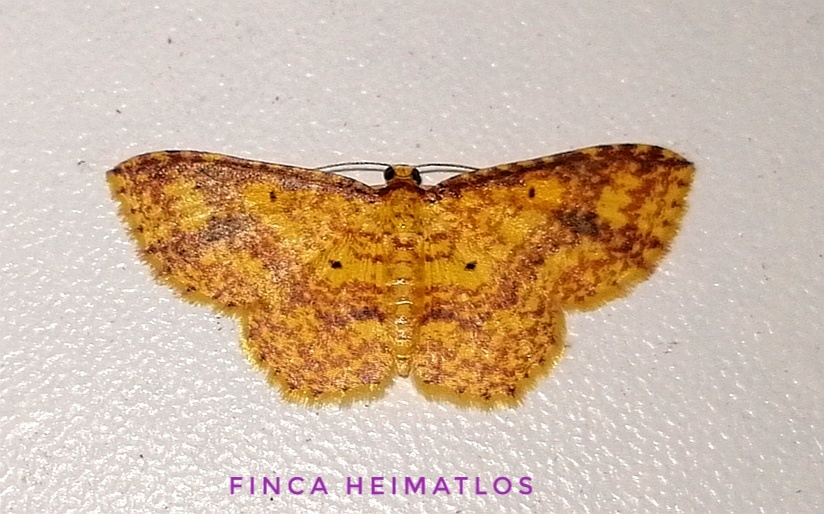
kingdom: Animalia
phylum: Arthropoda
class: Insecta
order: Lepidoptera
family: Geometridae
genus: Eois
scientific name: Eois dryope
